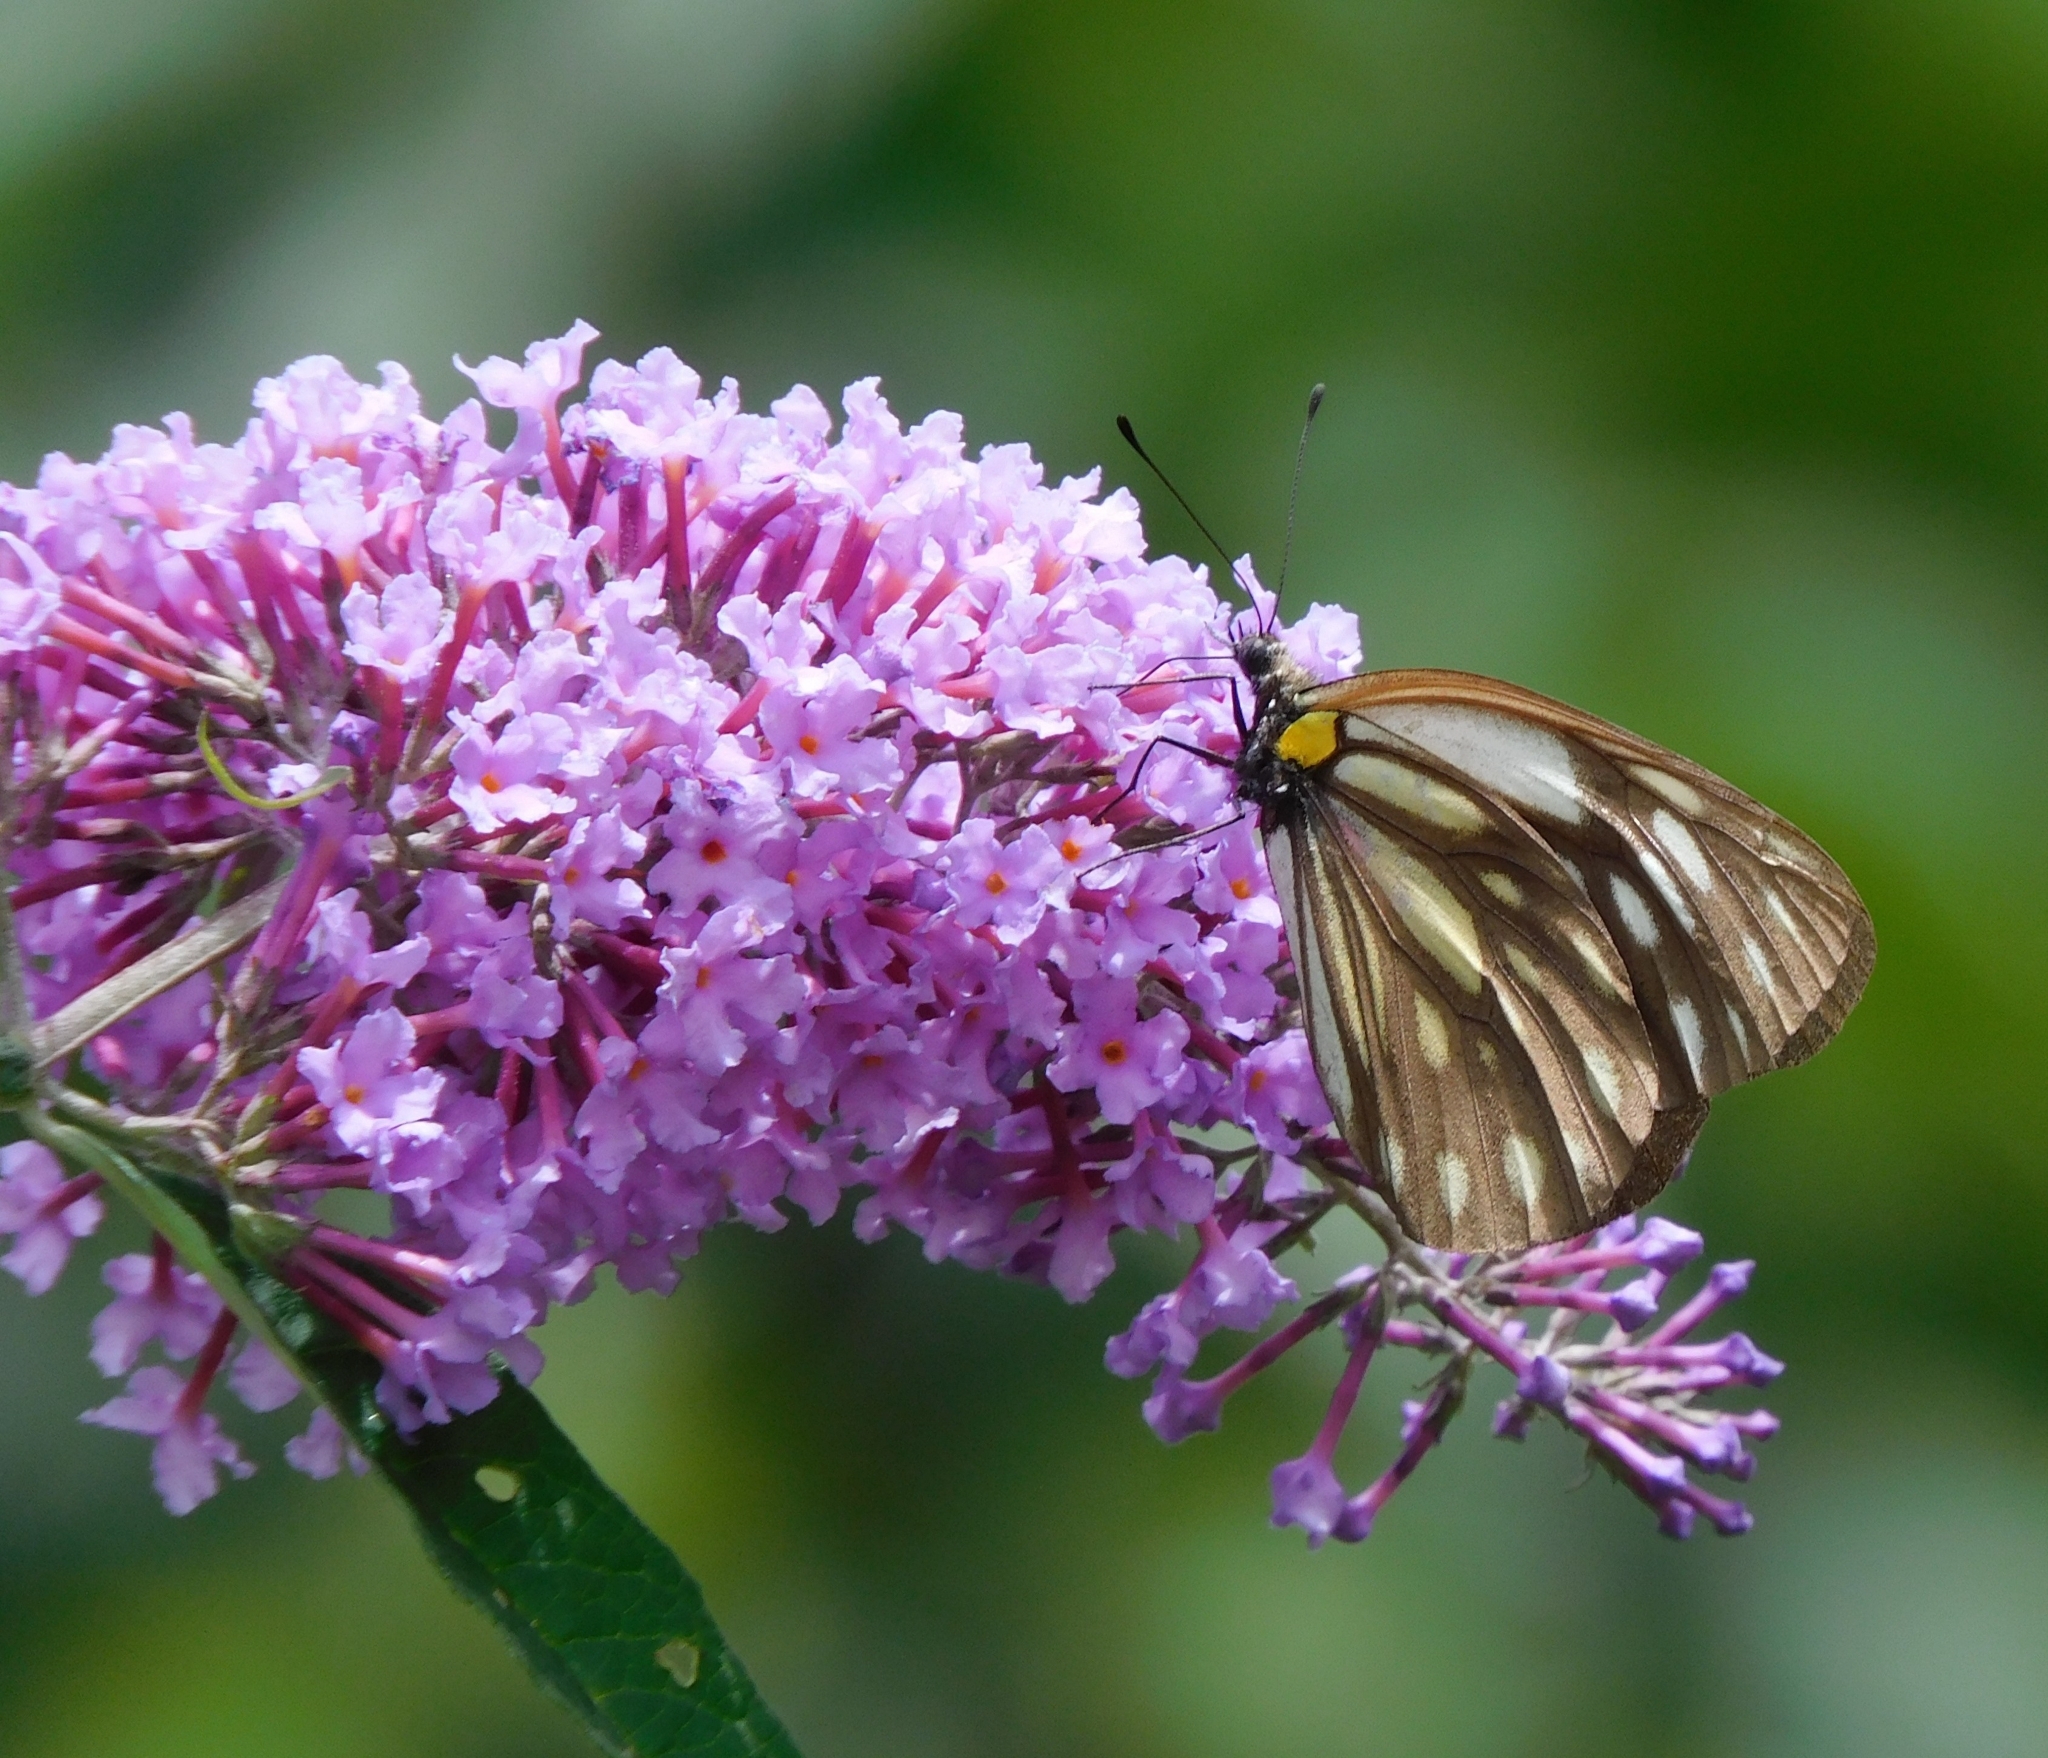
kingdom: Animalia
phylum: Arthropoda
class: Insecta
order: Lepidoptera
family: Pieridae
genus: Aporia
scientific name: Aporia agathon
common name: Great blackvein
